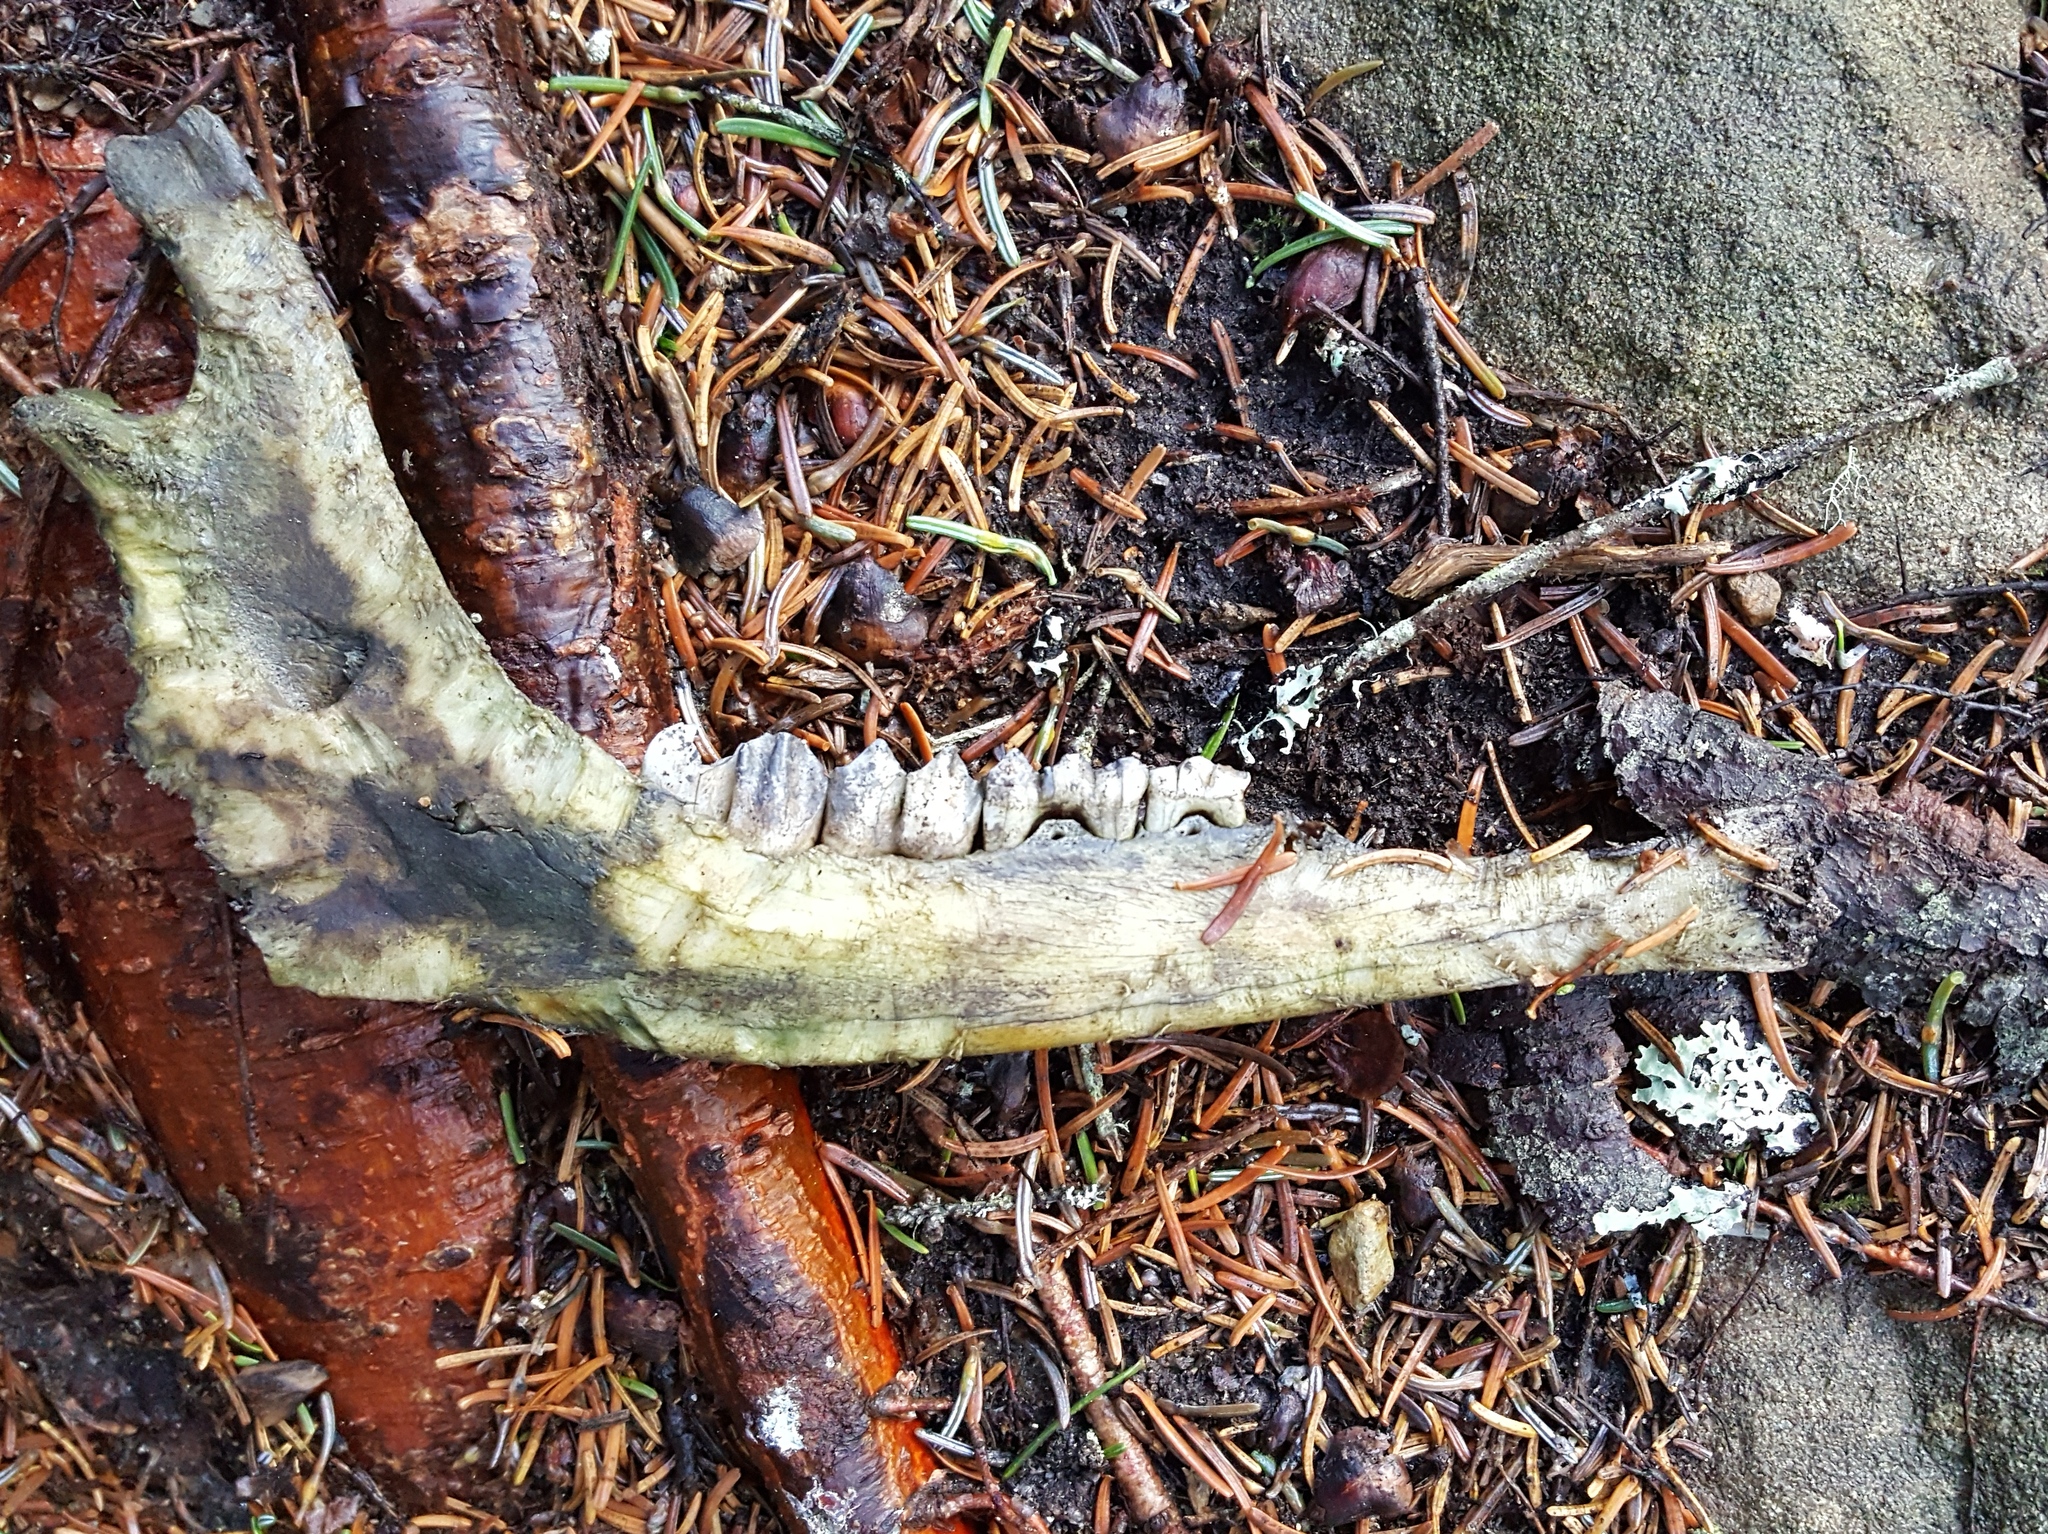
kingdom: Animalia
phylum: Chordata
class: Mammalia
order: Artiodactyla
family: Cervidae
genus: Odocoileus
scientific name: Odocoileus virginianus
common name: White-tailed deer
